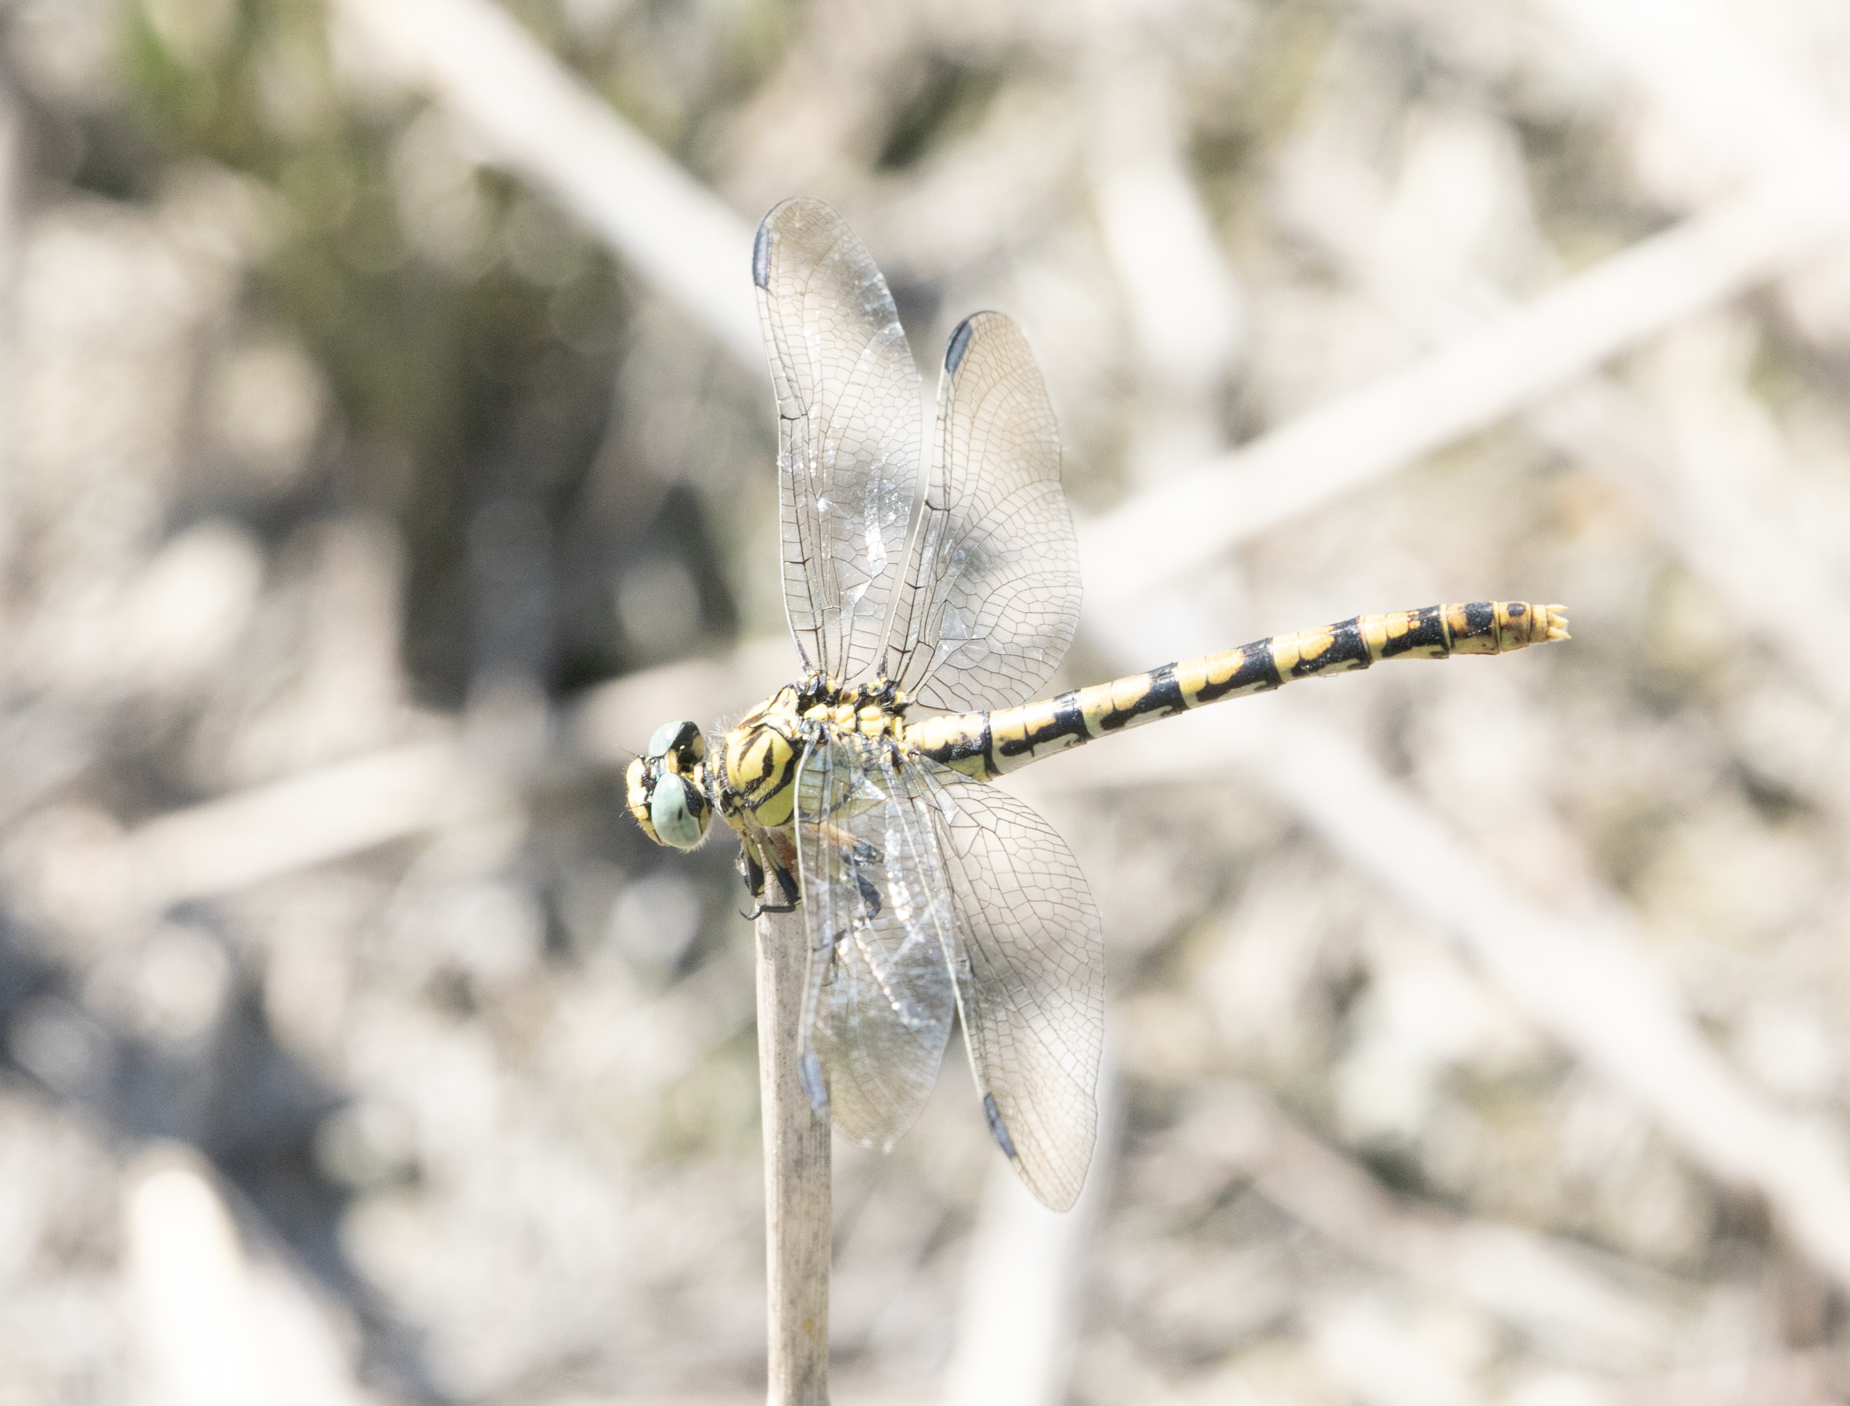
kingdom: Animalia
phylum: Arthropoda
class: Insecta
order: Odonata
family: Gomphidae
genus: Onychogomphus
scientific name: Onychogomphus forcipatus
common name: Small pincertail
